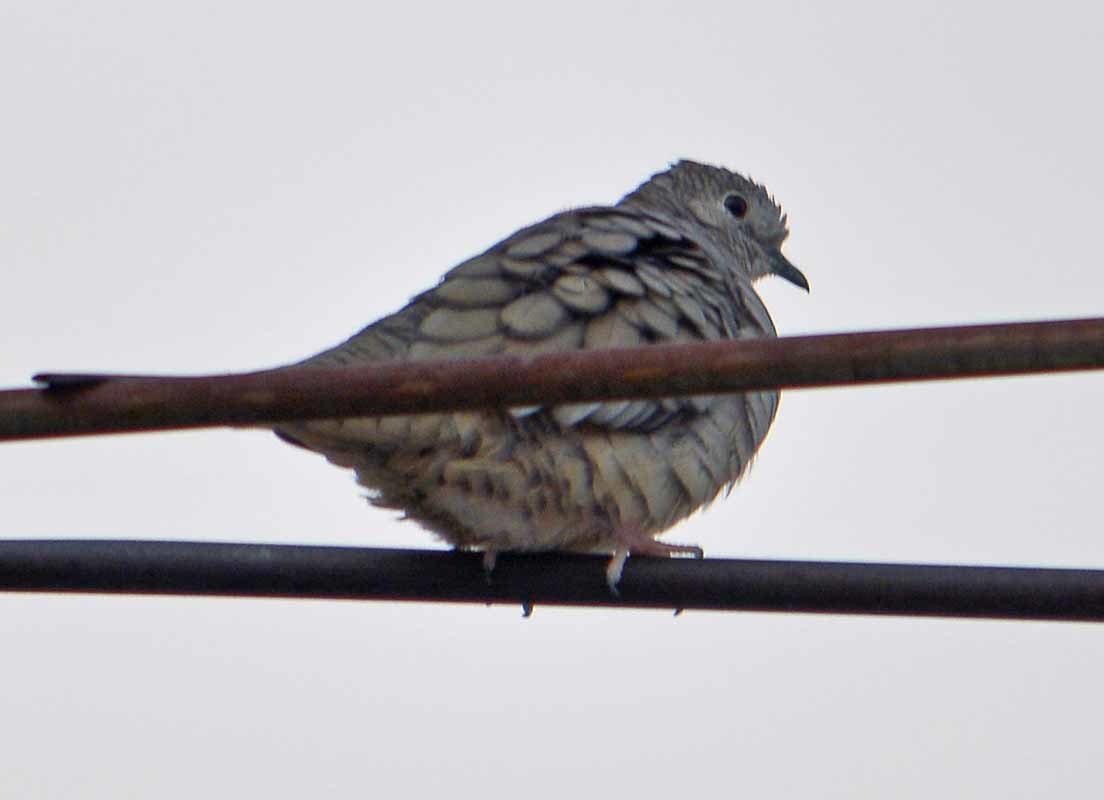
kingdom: Animalia
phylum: Chordata
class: Aves
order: Columbiformes
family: Columbidae
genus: Columbina
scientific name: Columbina inca
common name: Inca dove
